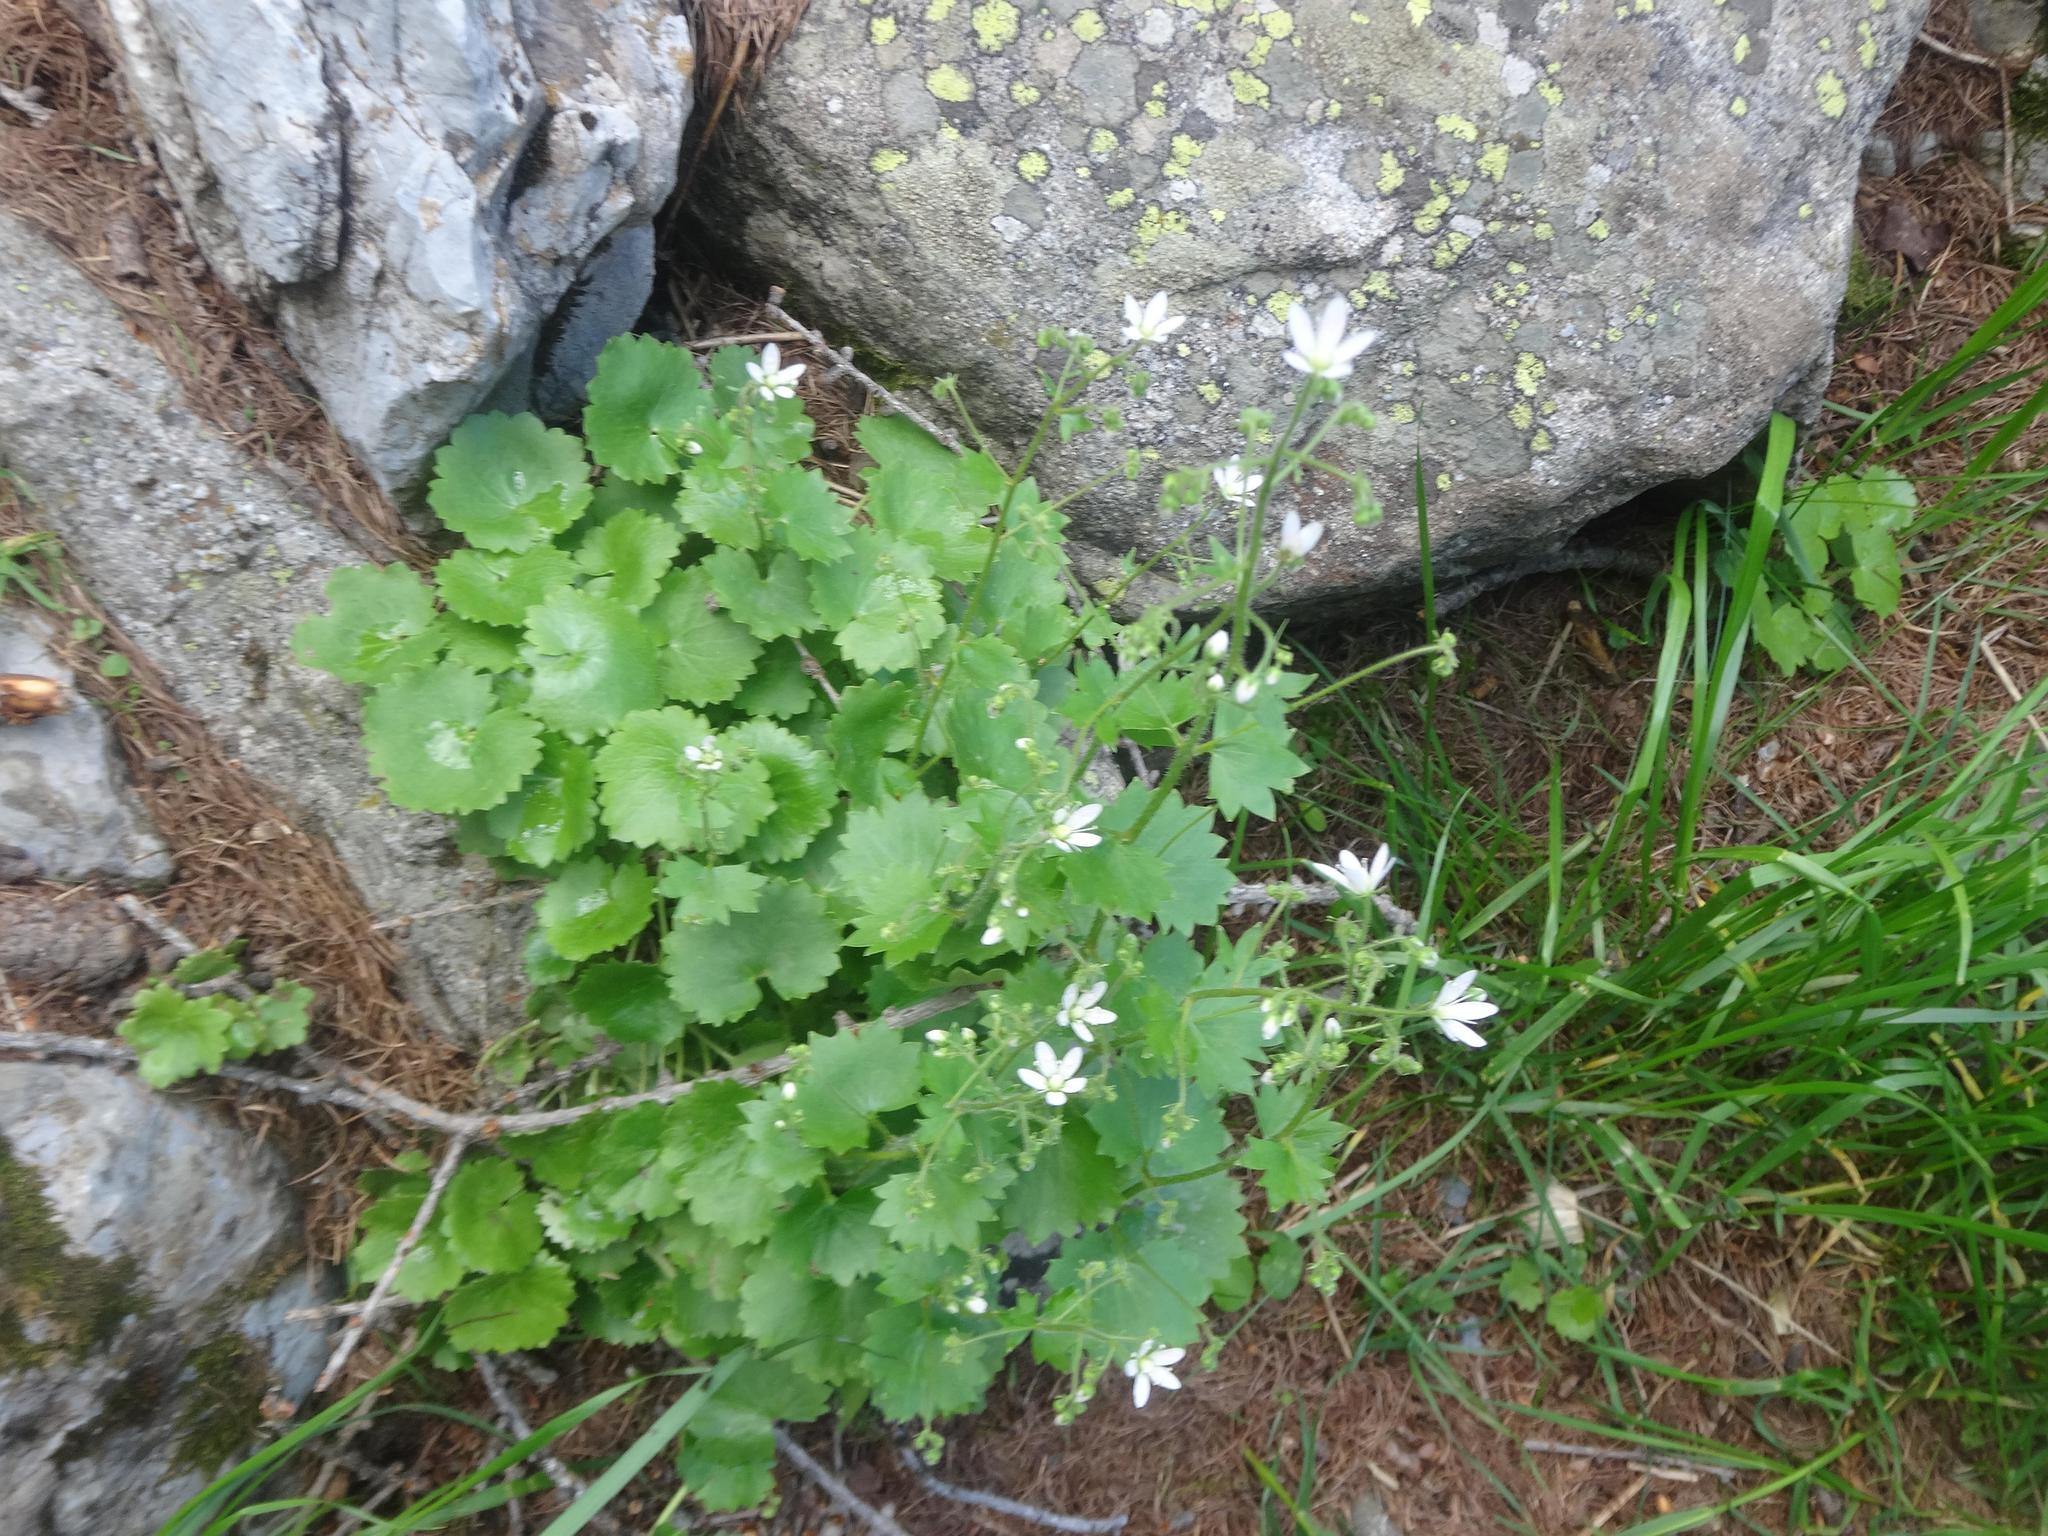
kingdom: Plantae
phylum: Tracheophyta
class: Magnoliopsida
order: Saxifragales
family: Saxifragaceae
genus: Saxifraga
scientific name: Saxifraga rotundifolia
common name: Round-leaved saxifrage
